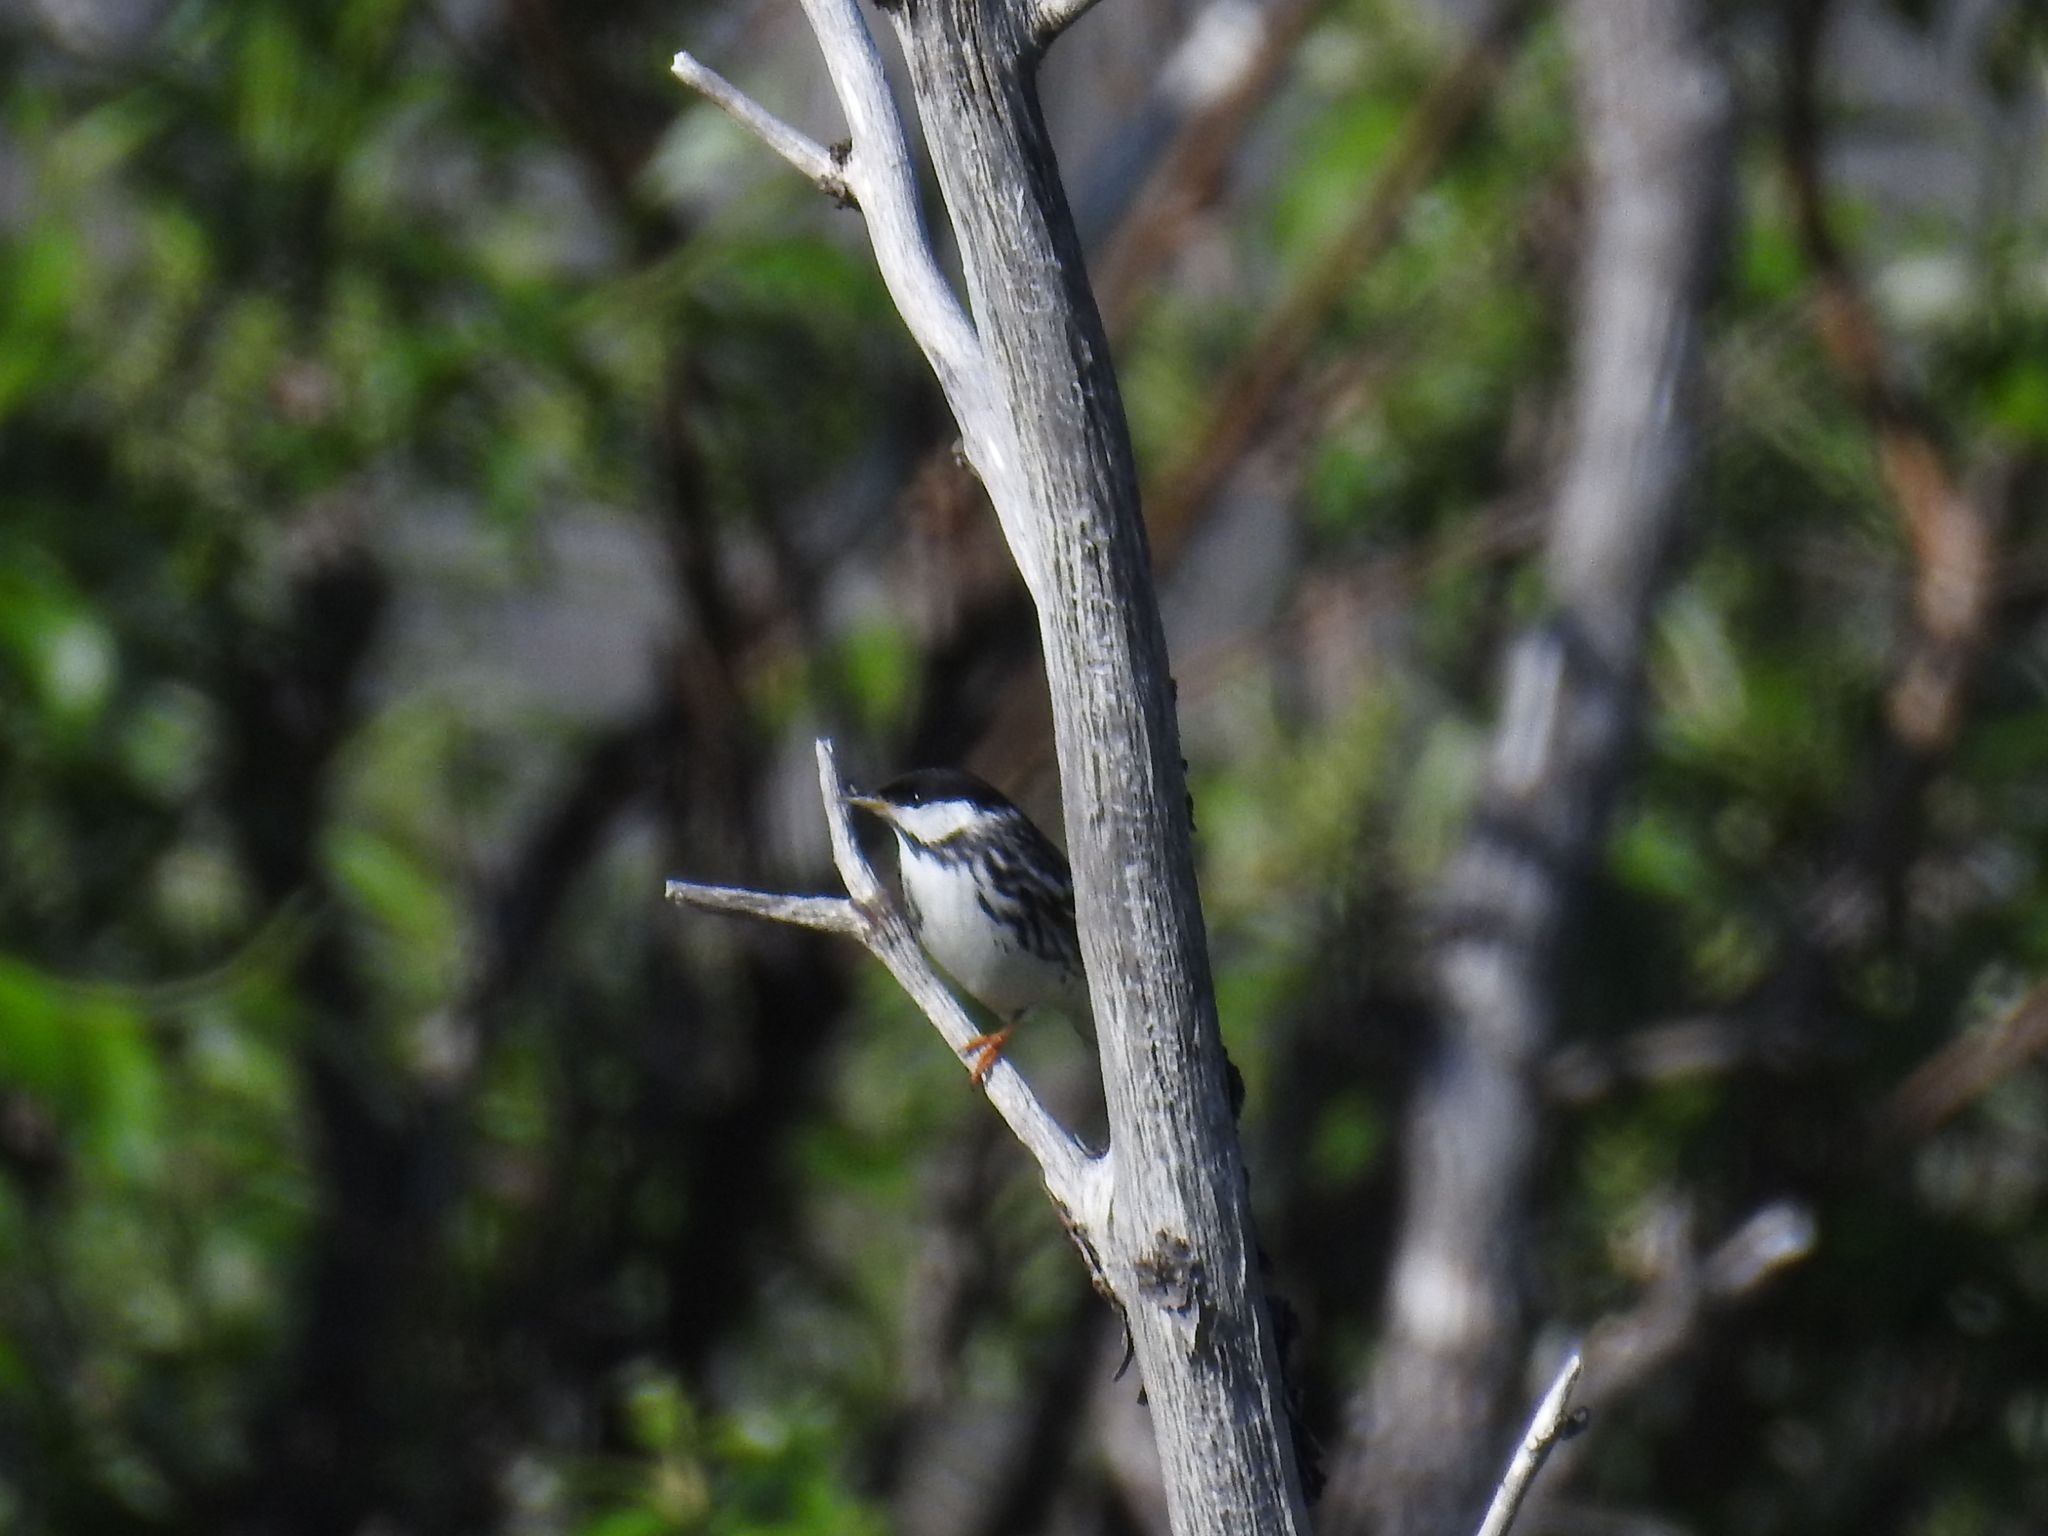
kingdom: Animalia
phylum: Chordata
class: Aves
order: Passeriformes
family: Parulidae
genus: Setophaga
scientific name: Setophaga striata
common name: Blackpoll warbler
